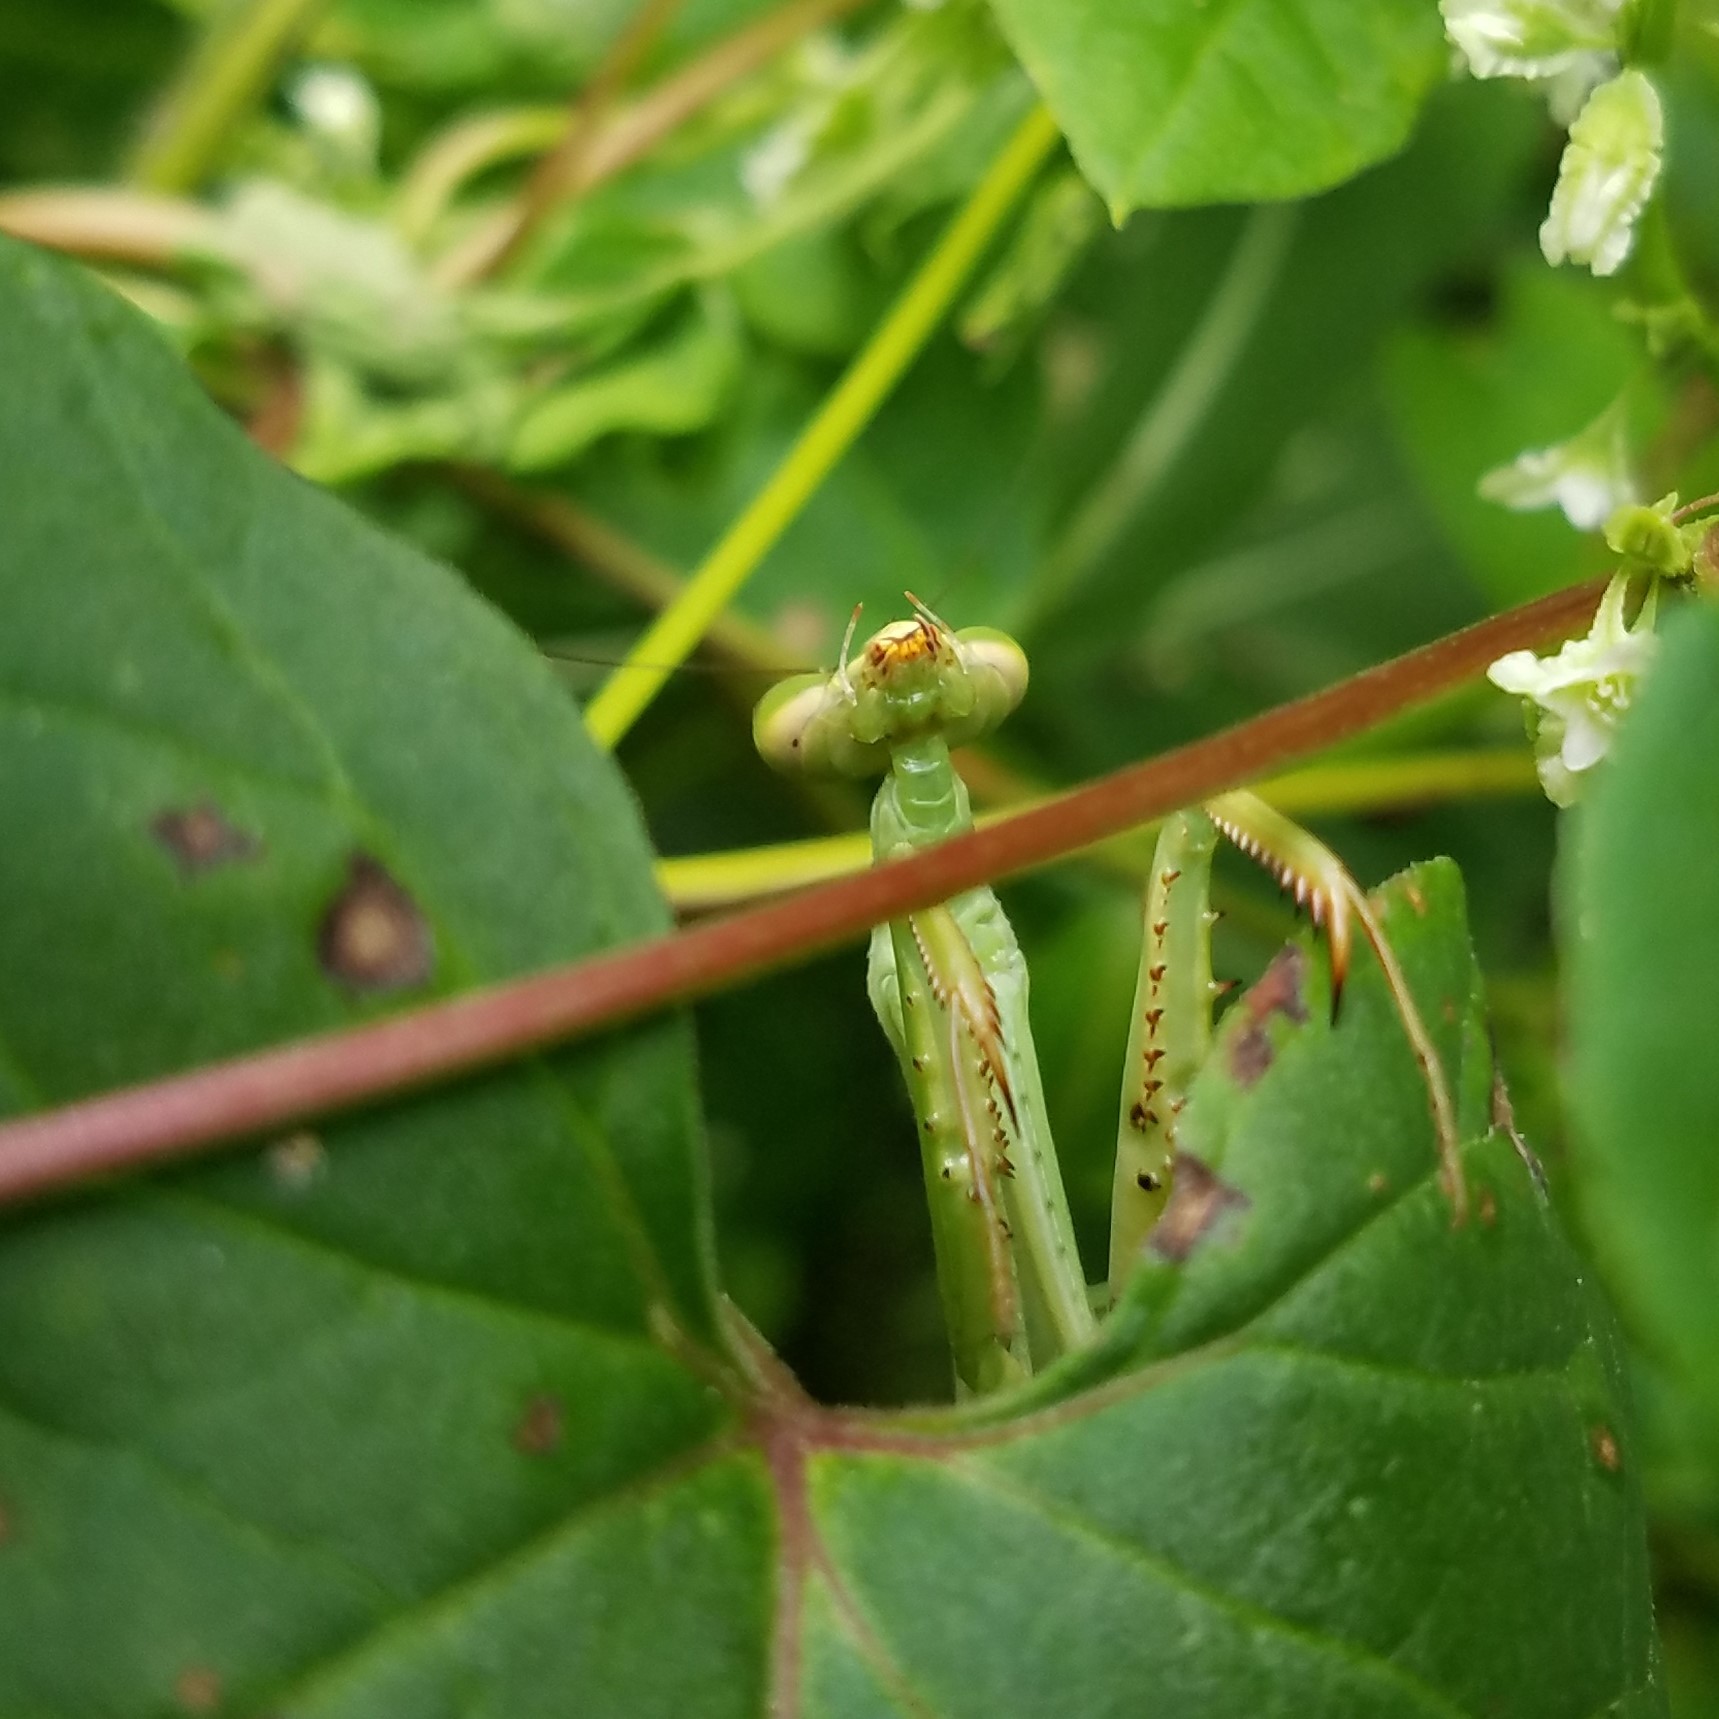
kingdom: Animalia
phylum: Arthropoda
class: Insecta
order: Mantodea
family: Mantidae
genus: Stagmomantis
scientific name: Stagmomantis carolina
